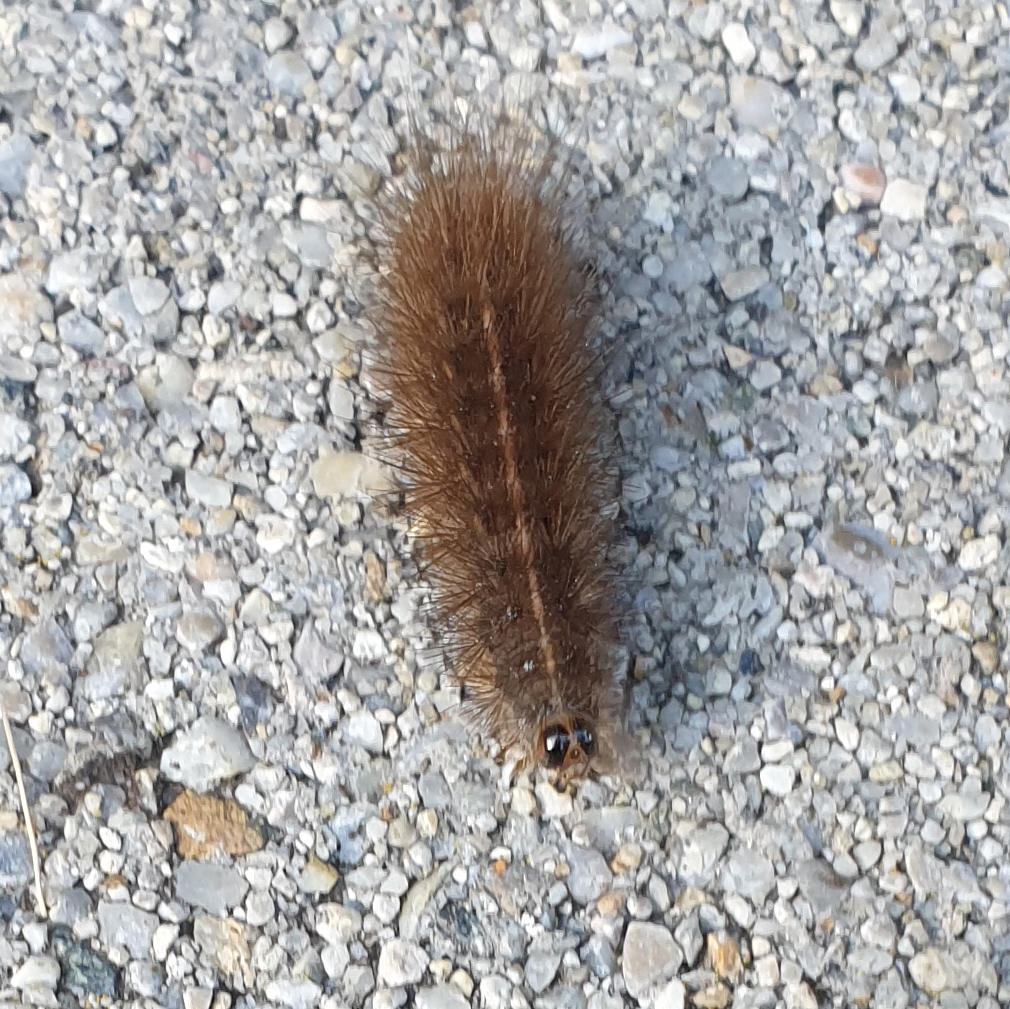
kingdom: Animalia
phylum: Arthropoda
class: Insecta
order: Lepidoptera
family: Erebidae
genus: Spilosoma
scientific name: Spilosoma lubricipeda
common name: White ermine
